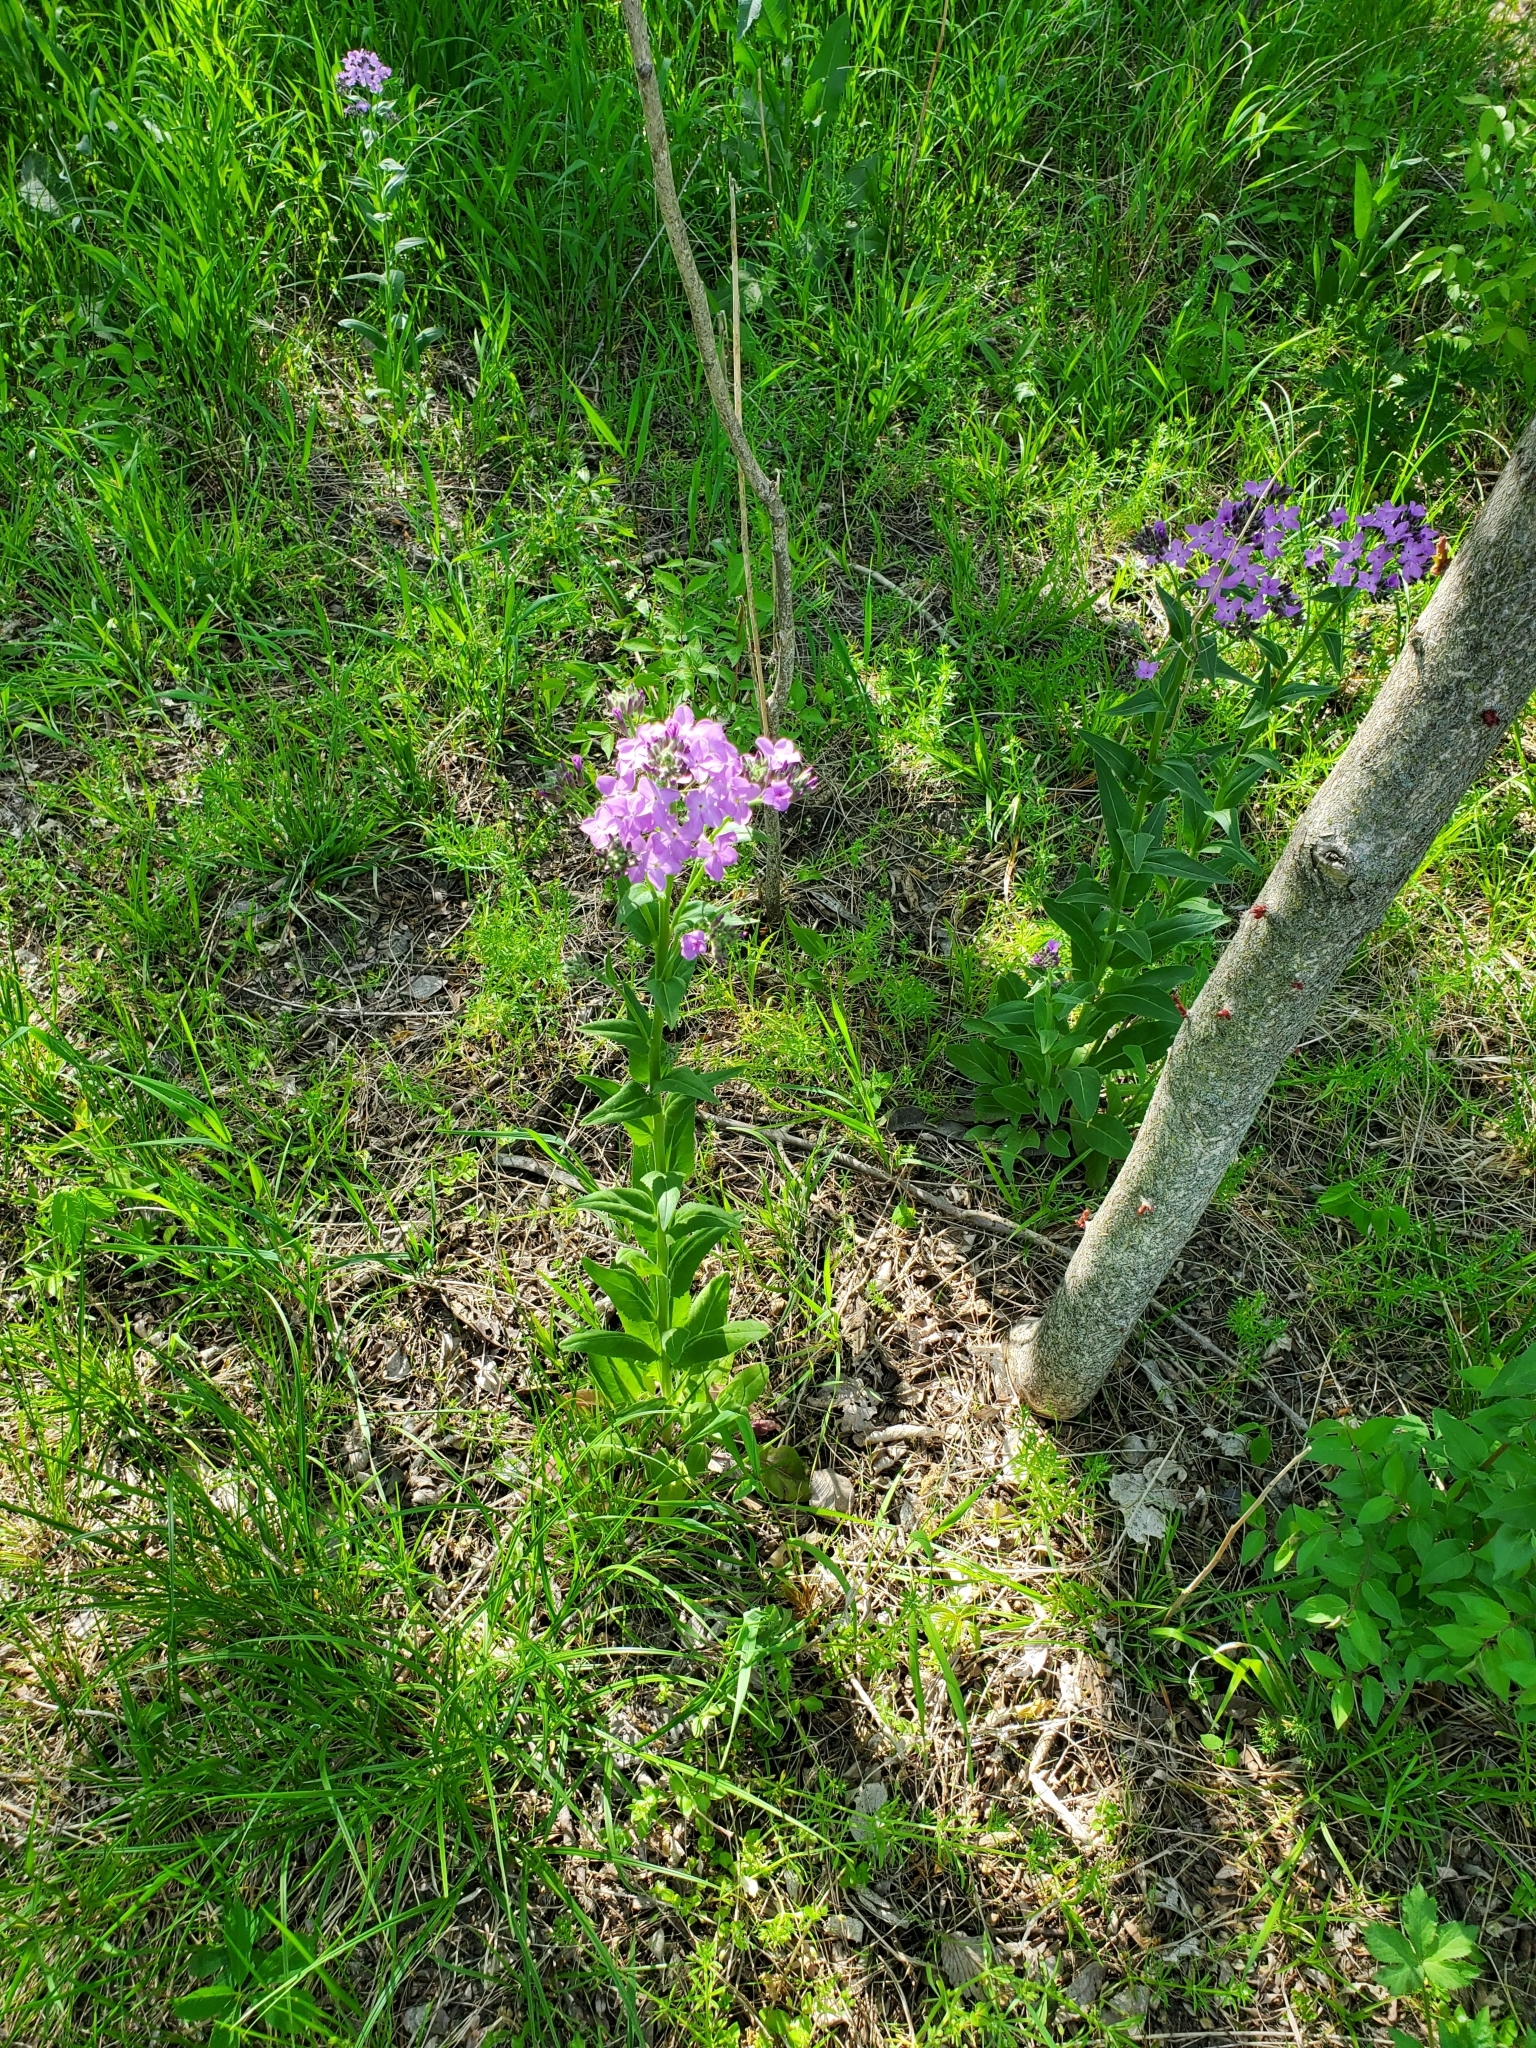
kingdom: Plantae
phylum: Tracheophyta
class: Magnoliopsida
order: Brassicales
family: Brassicaceae
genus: Hesperis
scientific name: Hesperis matronalis
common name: Dame's-violet
